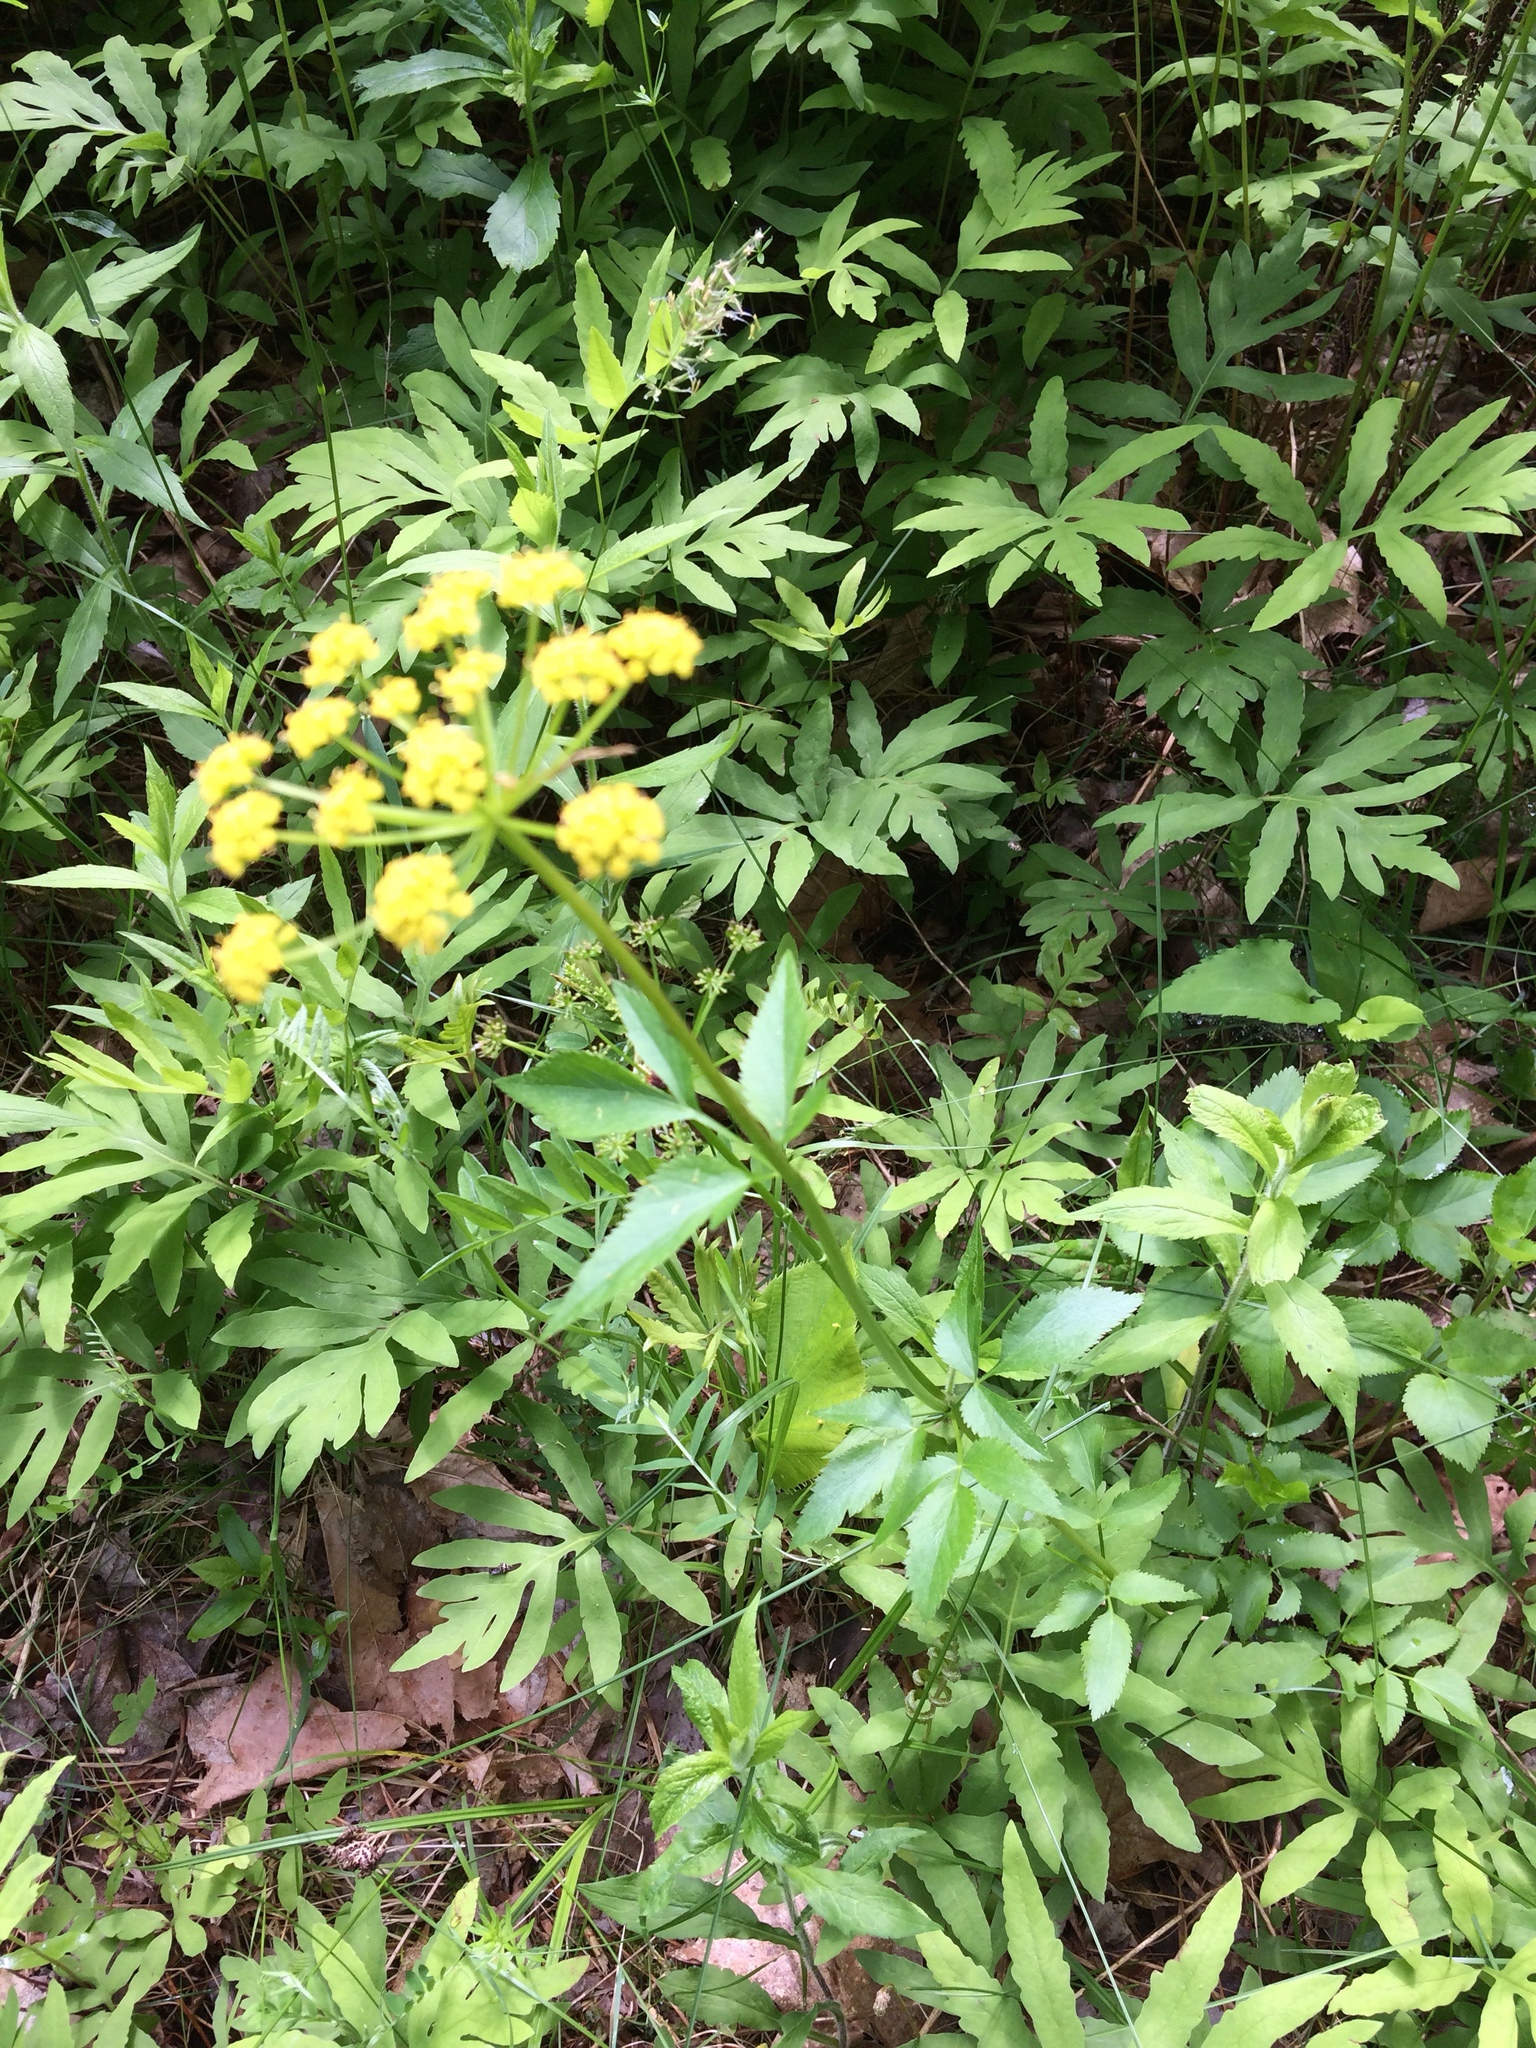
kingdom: Plantae
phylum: Tracheophyta
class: Magnoliopsida
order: Apiales
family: Apiaceae
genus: Zizia
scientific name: Zizia aurea
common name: Golden alexanders
